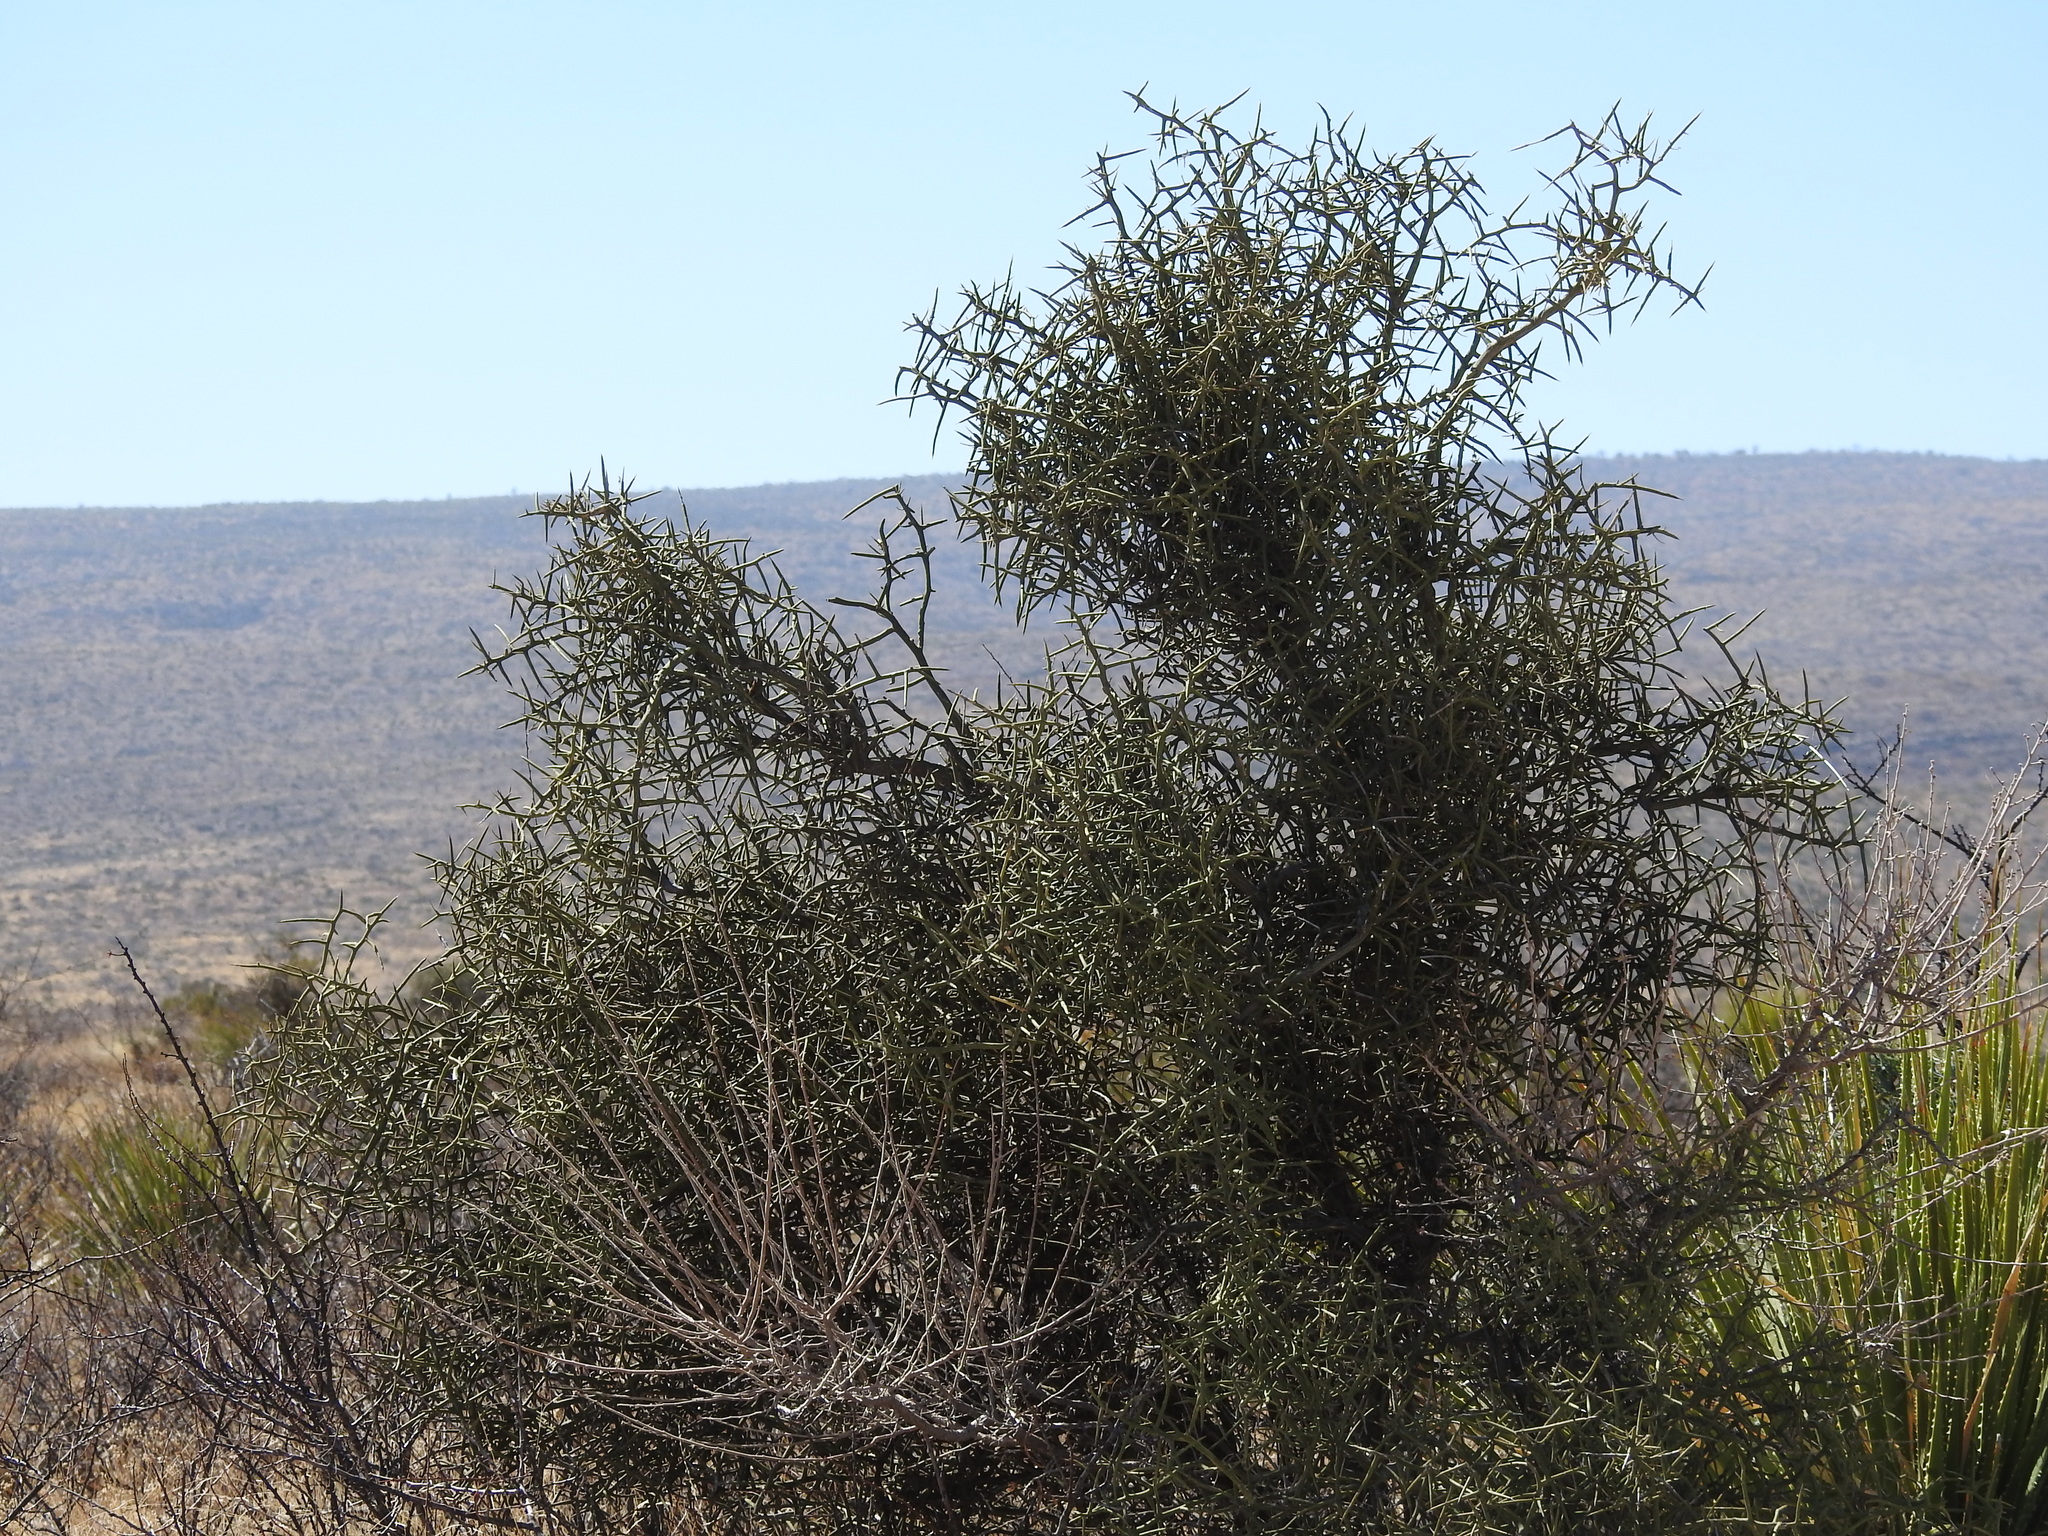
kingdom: Plantae
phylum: Tracheophyta
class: Magnoliopsida
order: Brassicales
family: Koeberliniaceae
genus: Koeberlinia
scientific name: Koeberlinia spinosa
